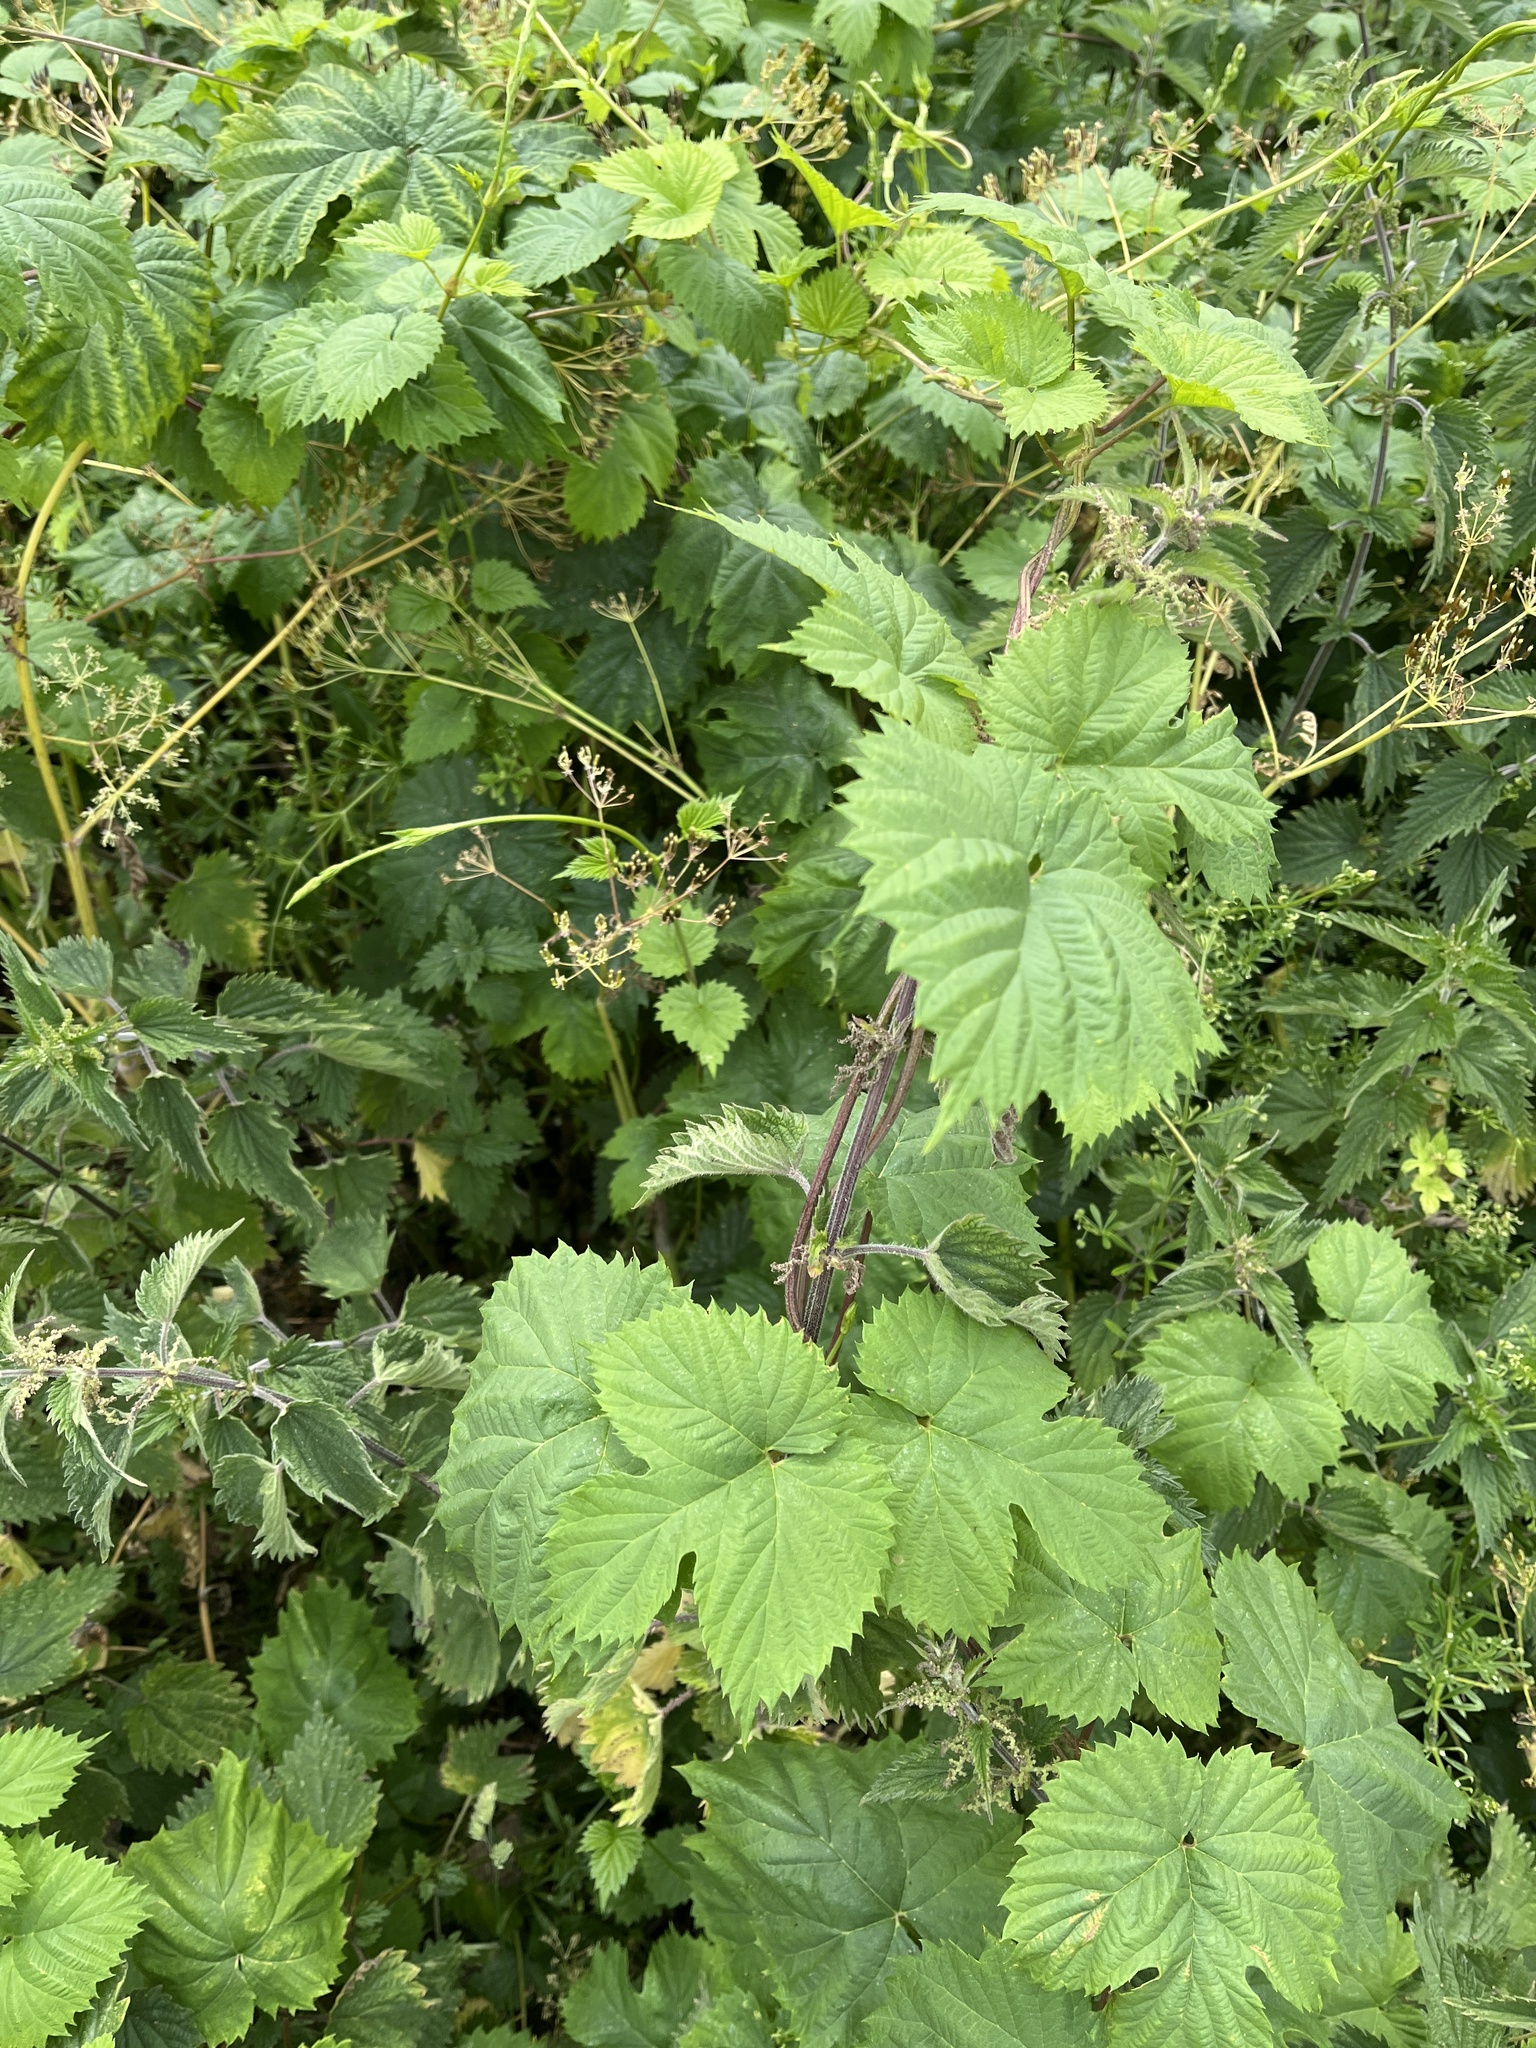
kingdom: Plantae
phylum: Tracheophyta
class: Magnoliopsida
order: Rosales
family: Cannabaceae
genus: Humulus
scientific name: Humulus lupulus
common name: Hop
